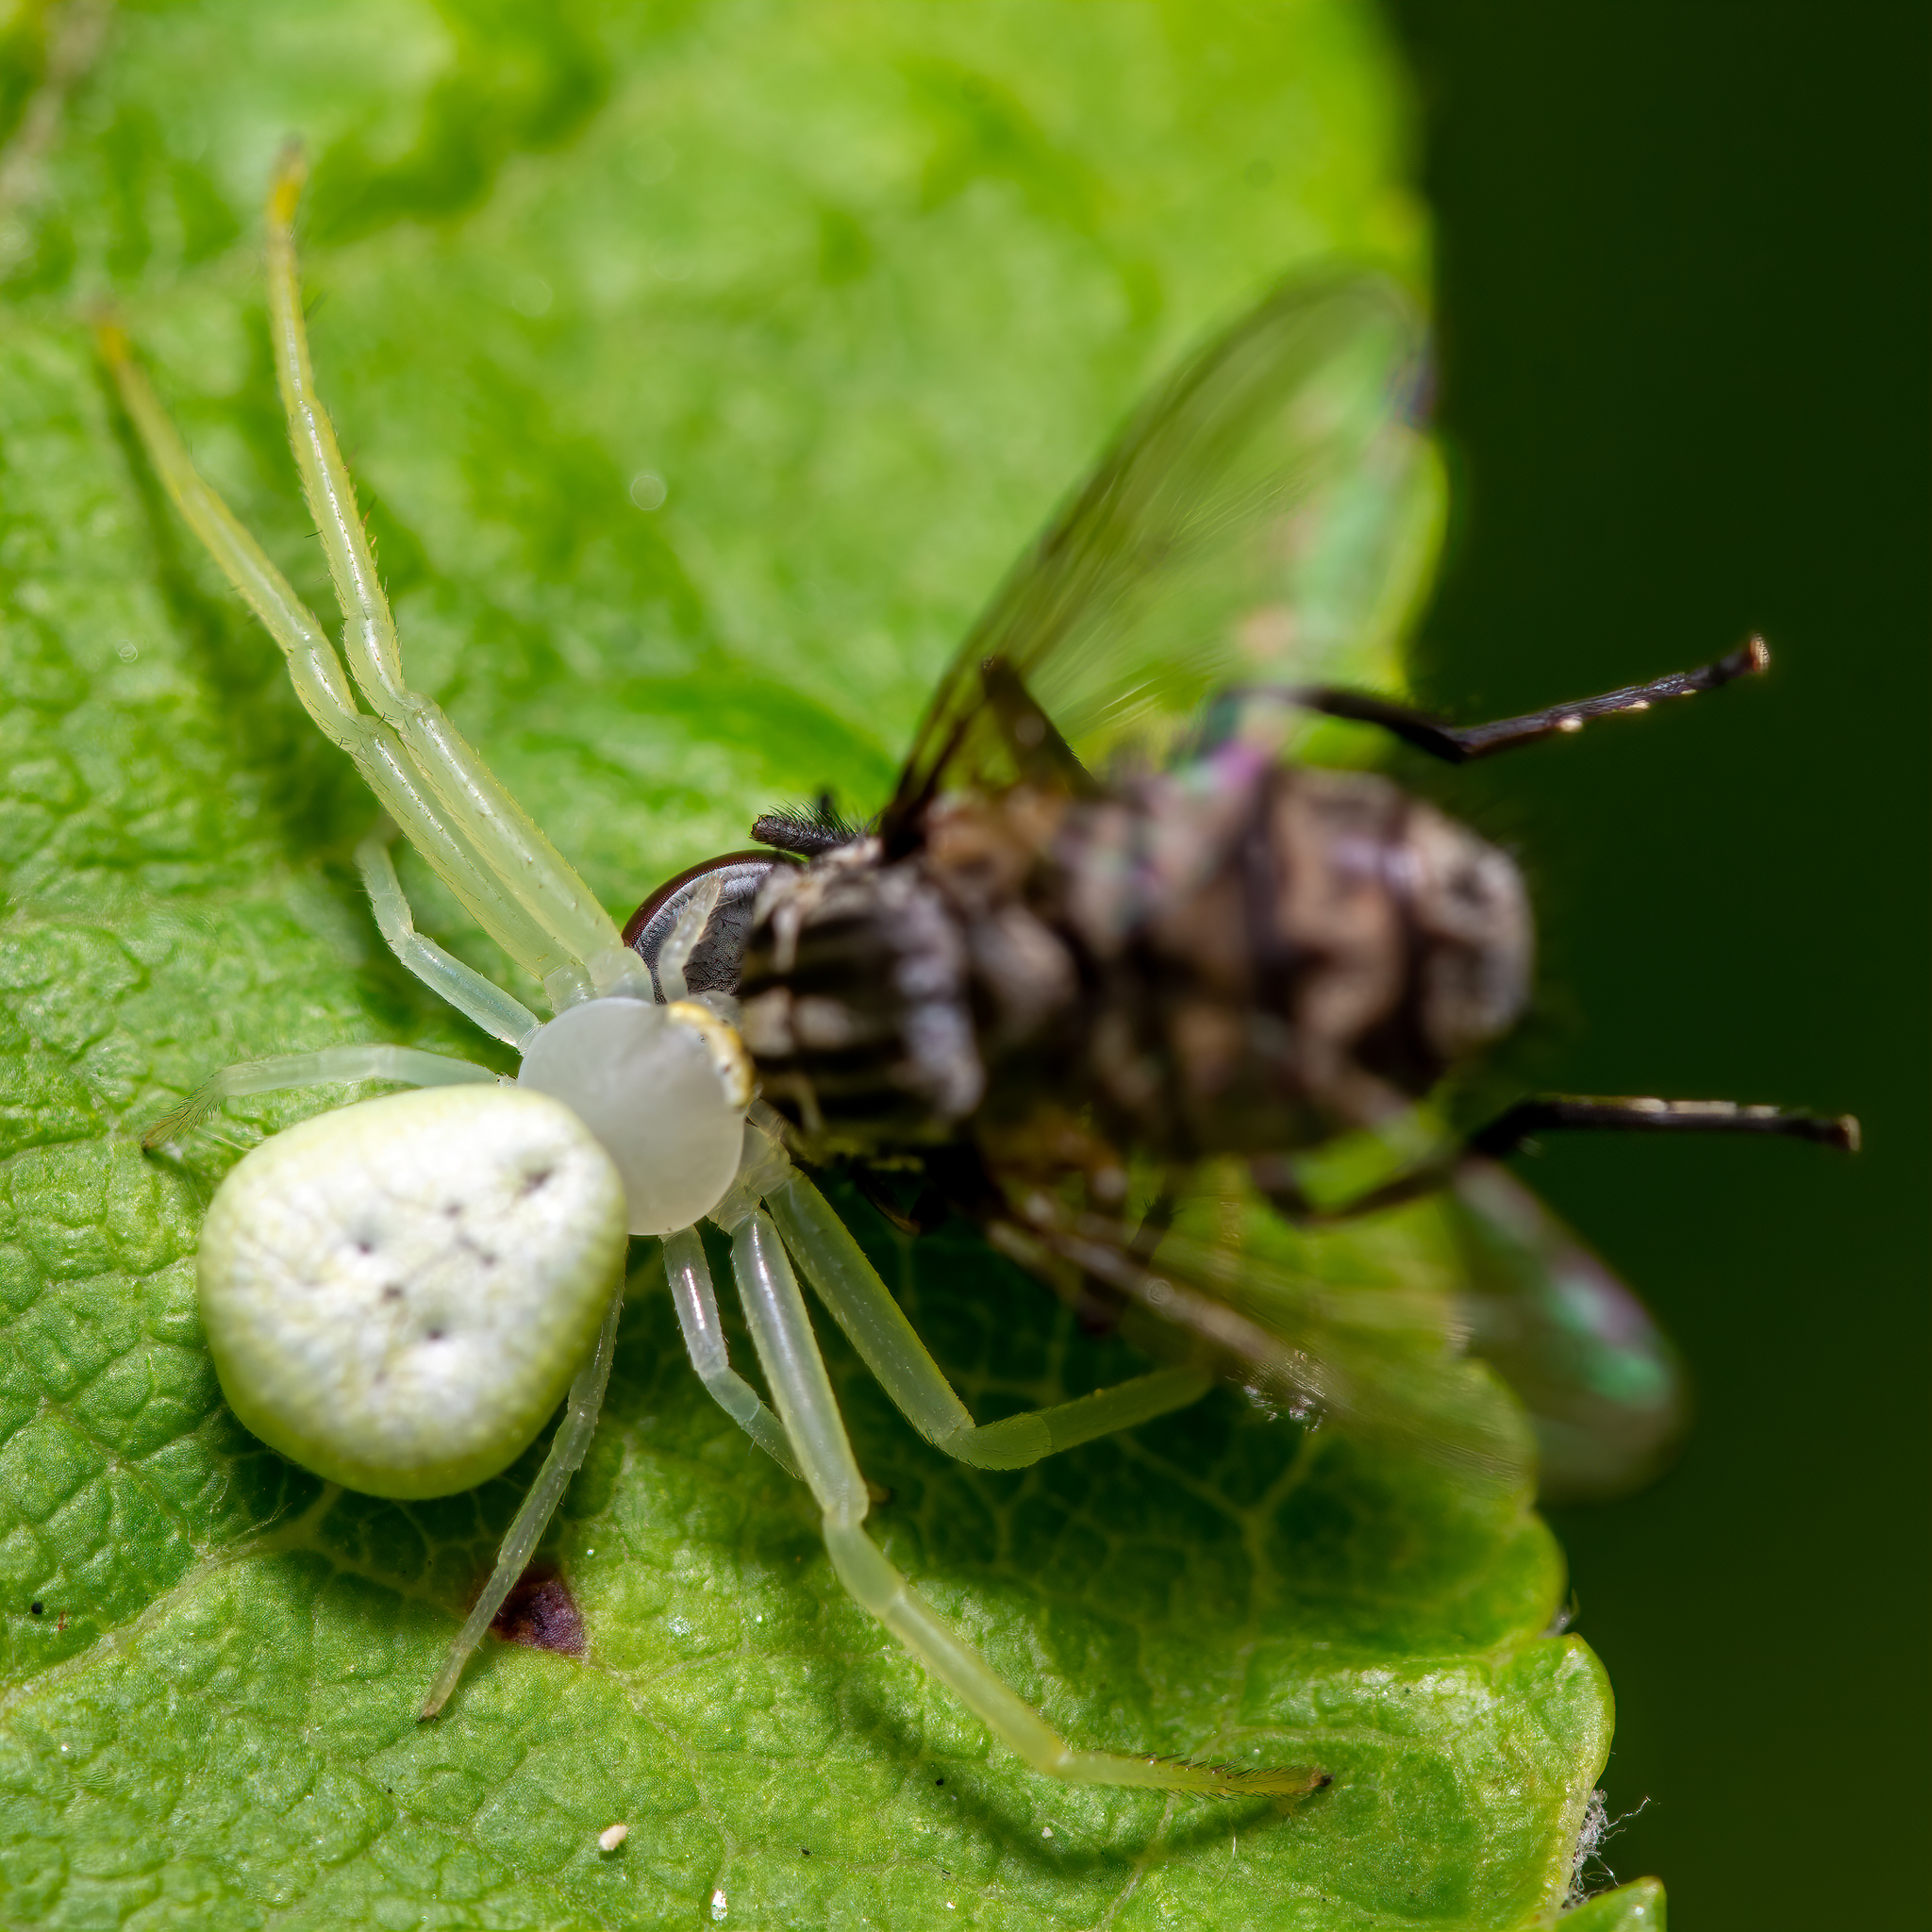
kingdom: Animalia
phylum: Arthropoda
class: Arachnida
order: Araneae
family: Thomisidae
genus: Misumessus
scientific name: Misumessus oblongus
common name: American green crab spider
